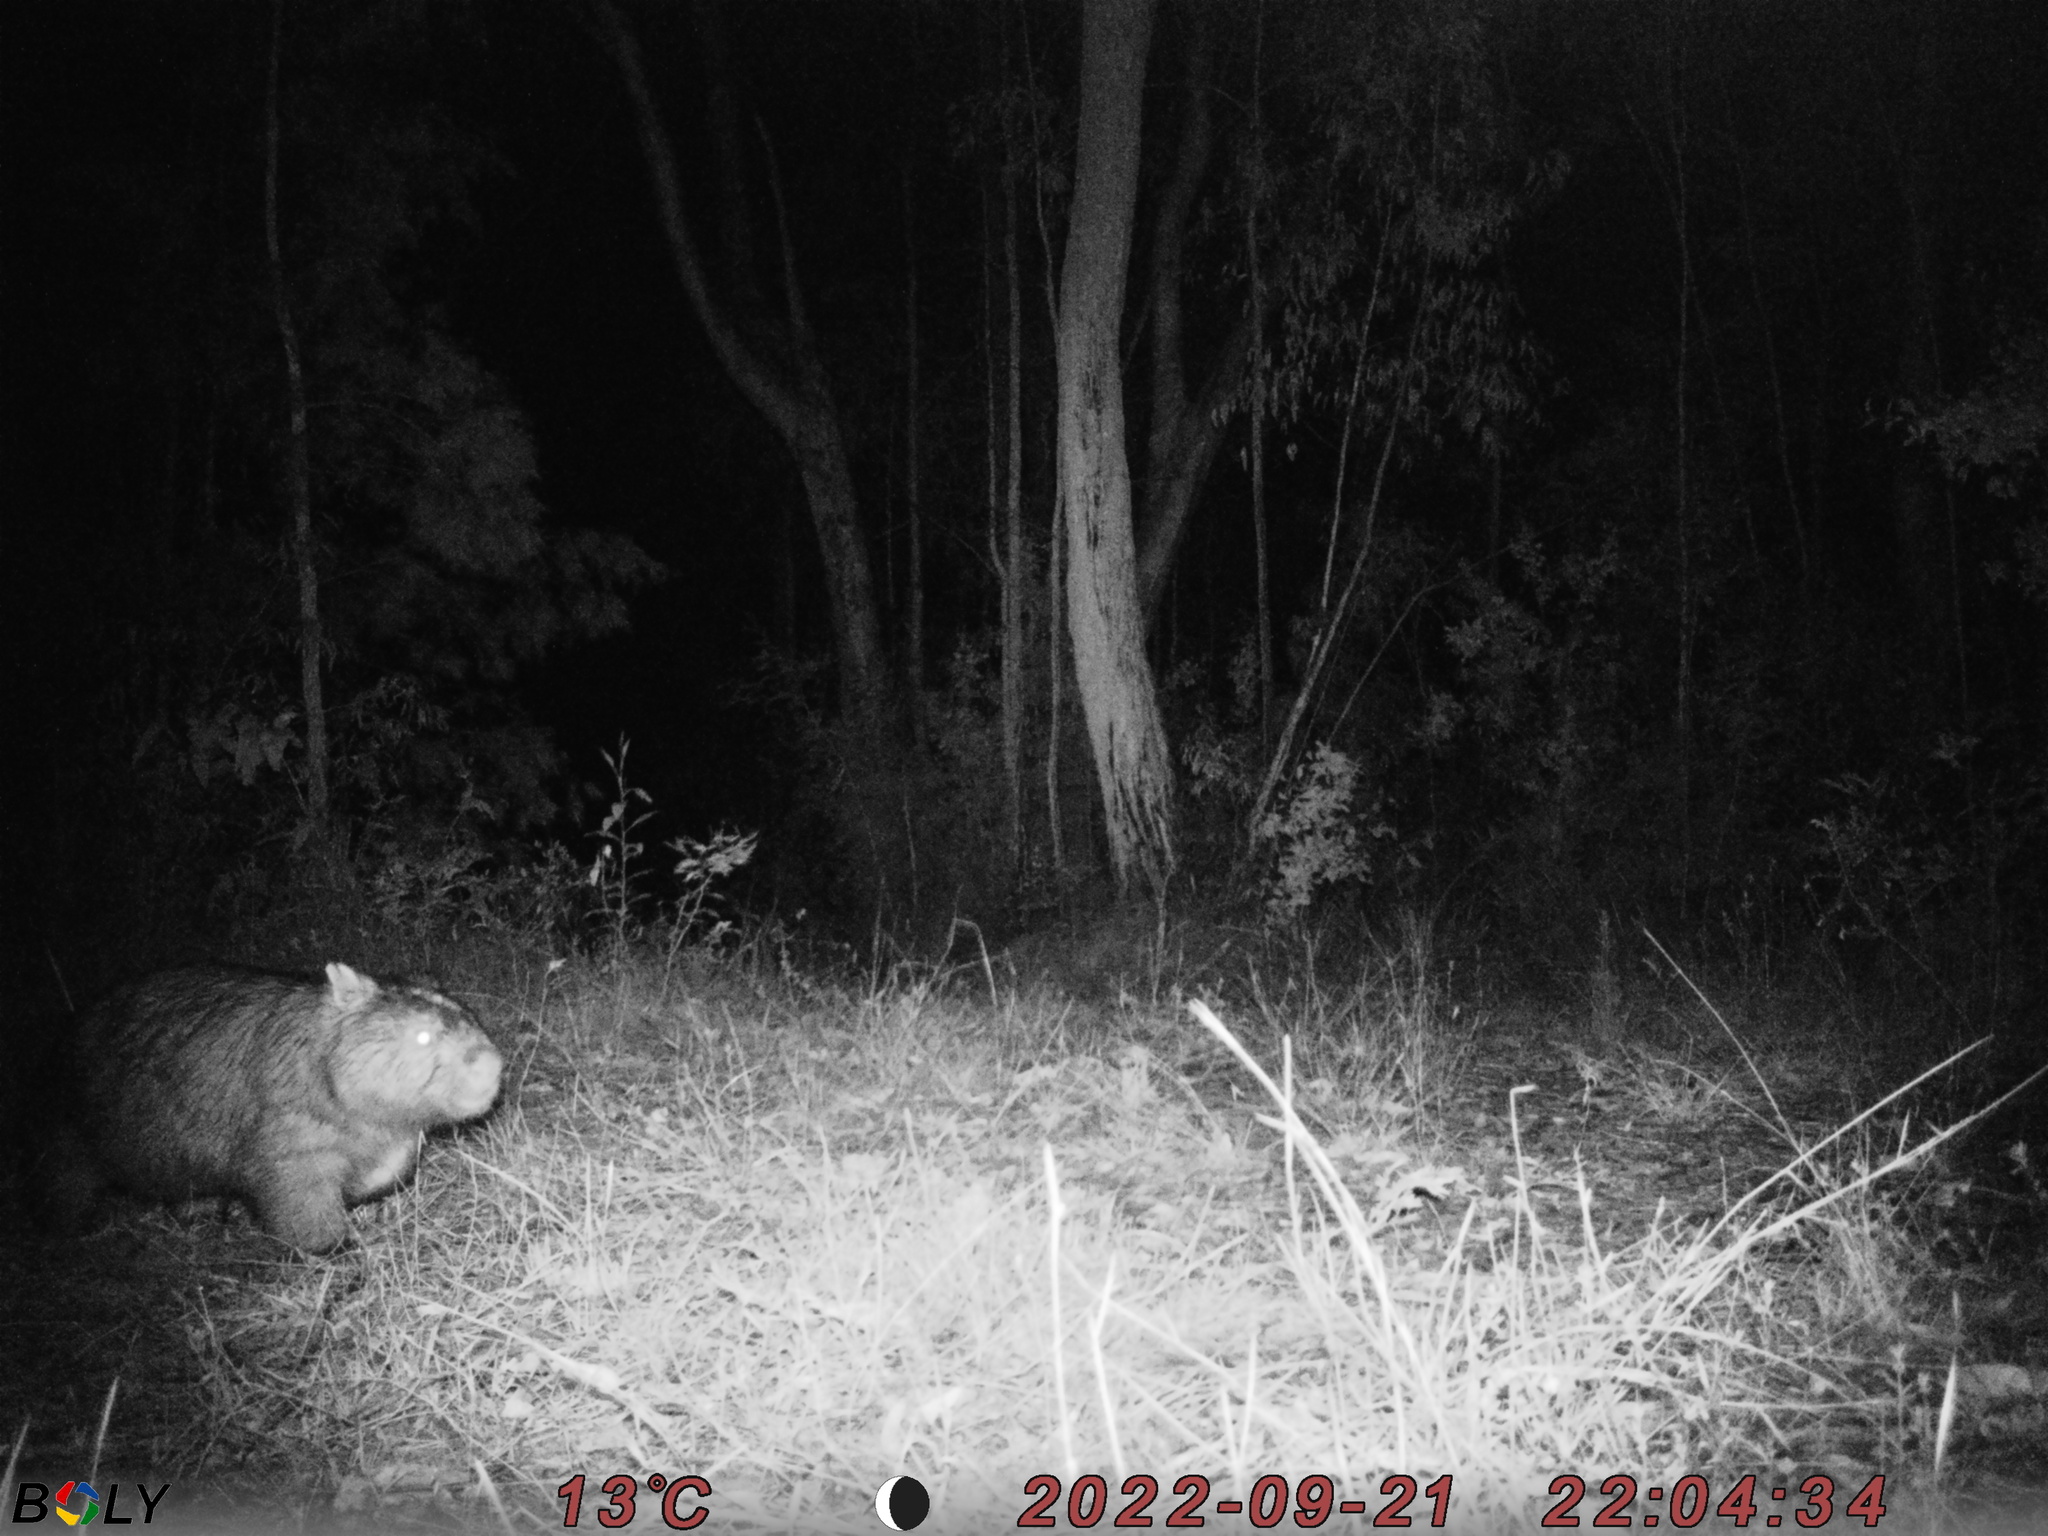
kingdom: Animalia
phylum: Chordata
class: Mammalia
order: Diprotodontia
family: Vombatidae
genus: Vombatus
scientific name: Vombatus ursinus
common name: Common wombat
